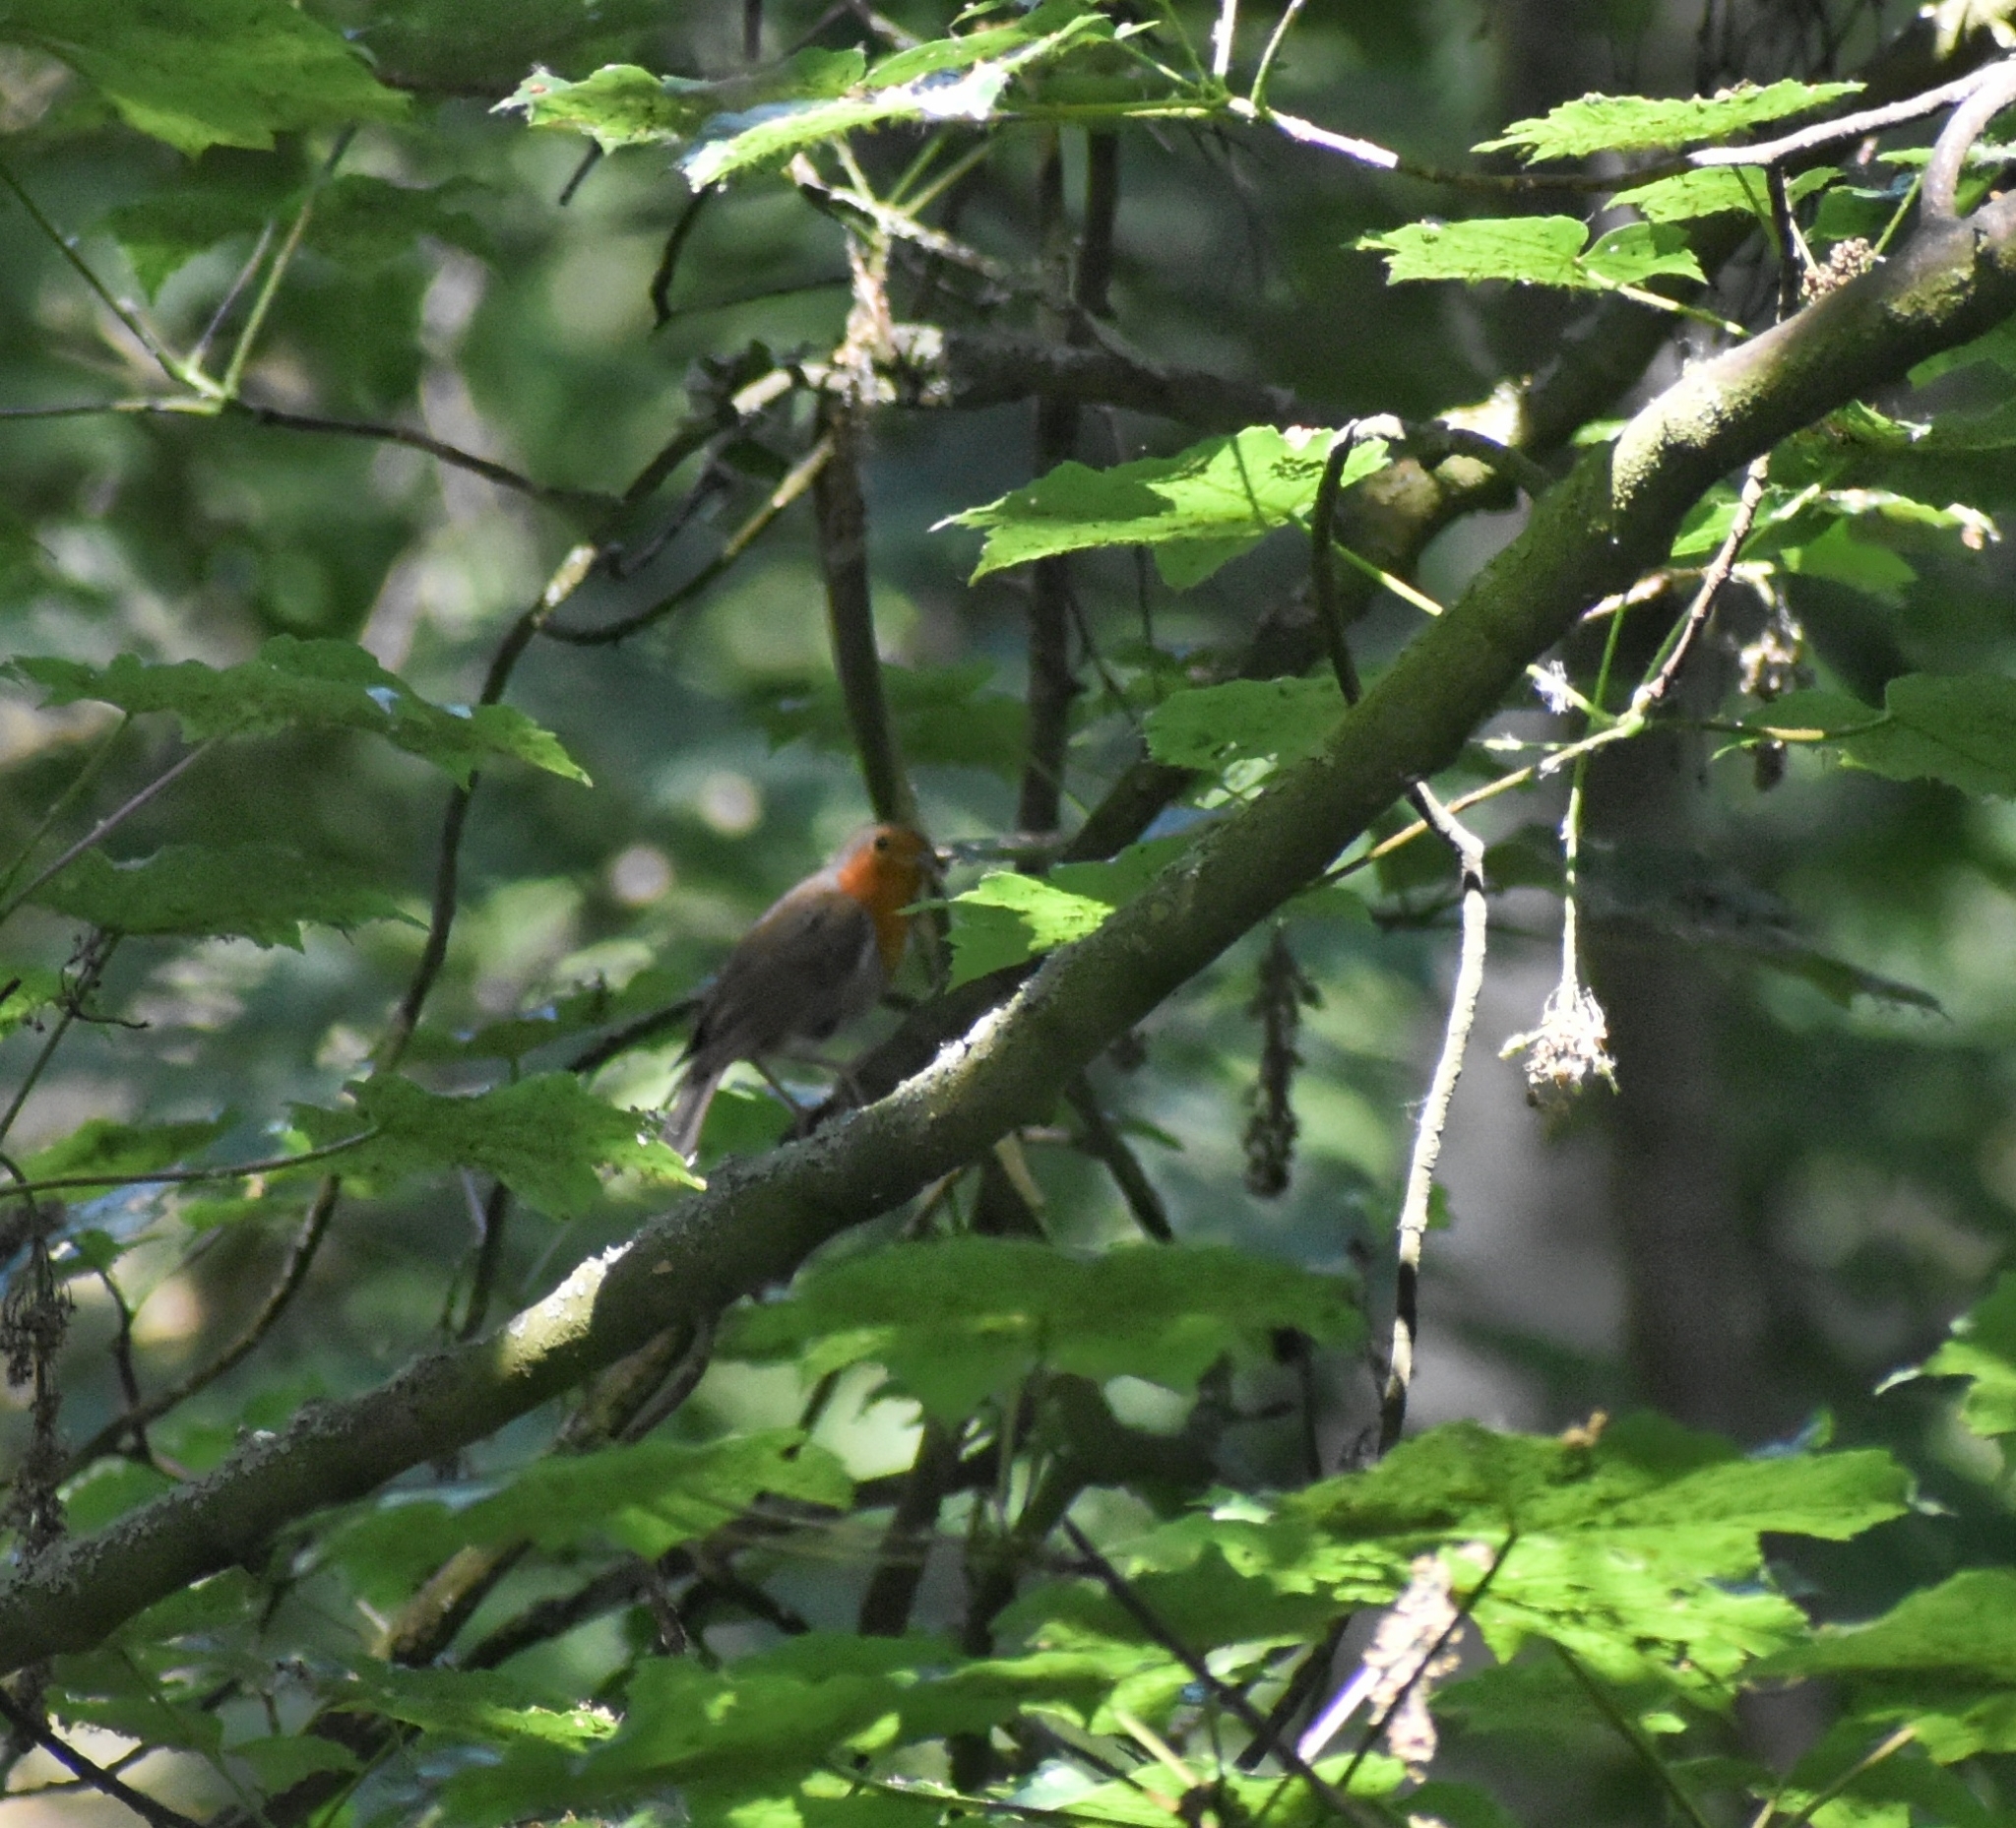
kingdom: Animalia
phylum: Chordata
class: Aves
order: Passeriformes
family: Muscicapidae
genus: Erithacus
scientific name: Erithacus rubecula
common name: European robin
